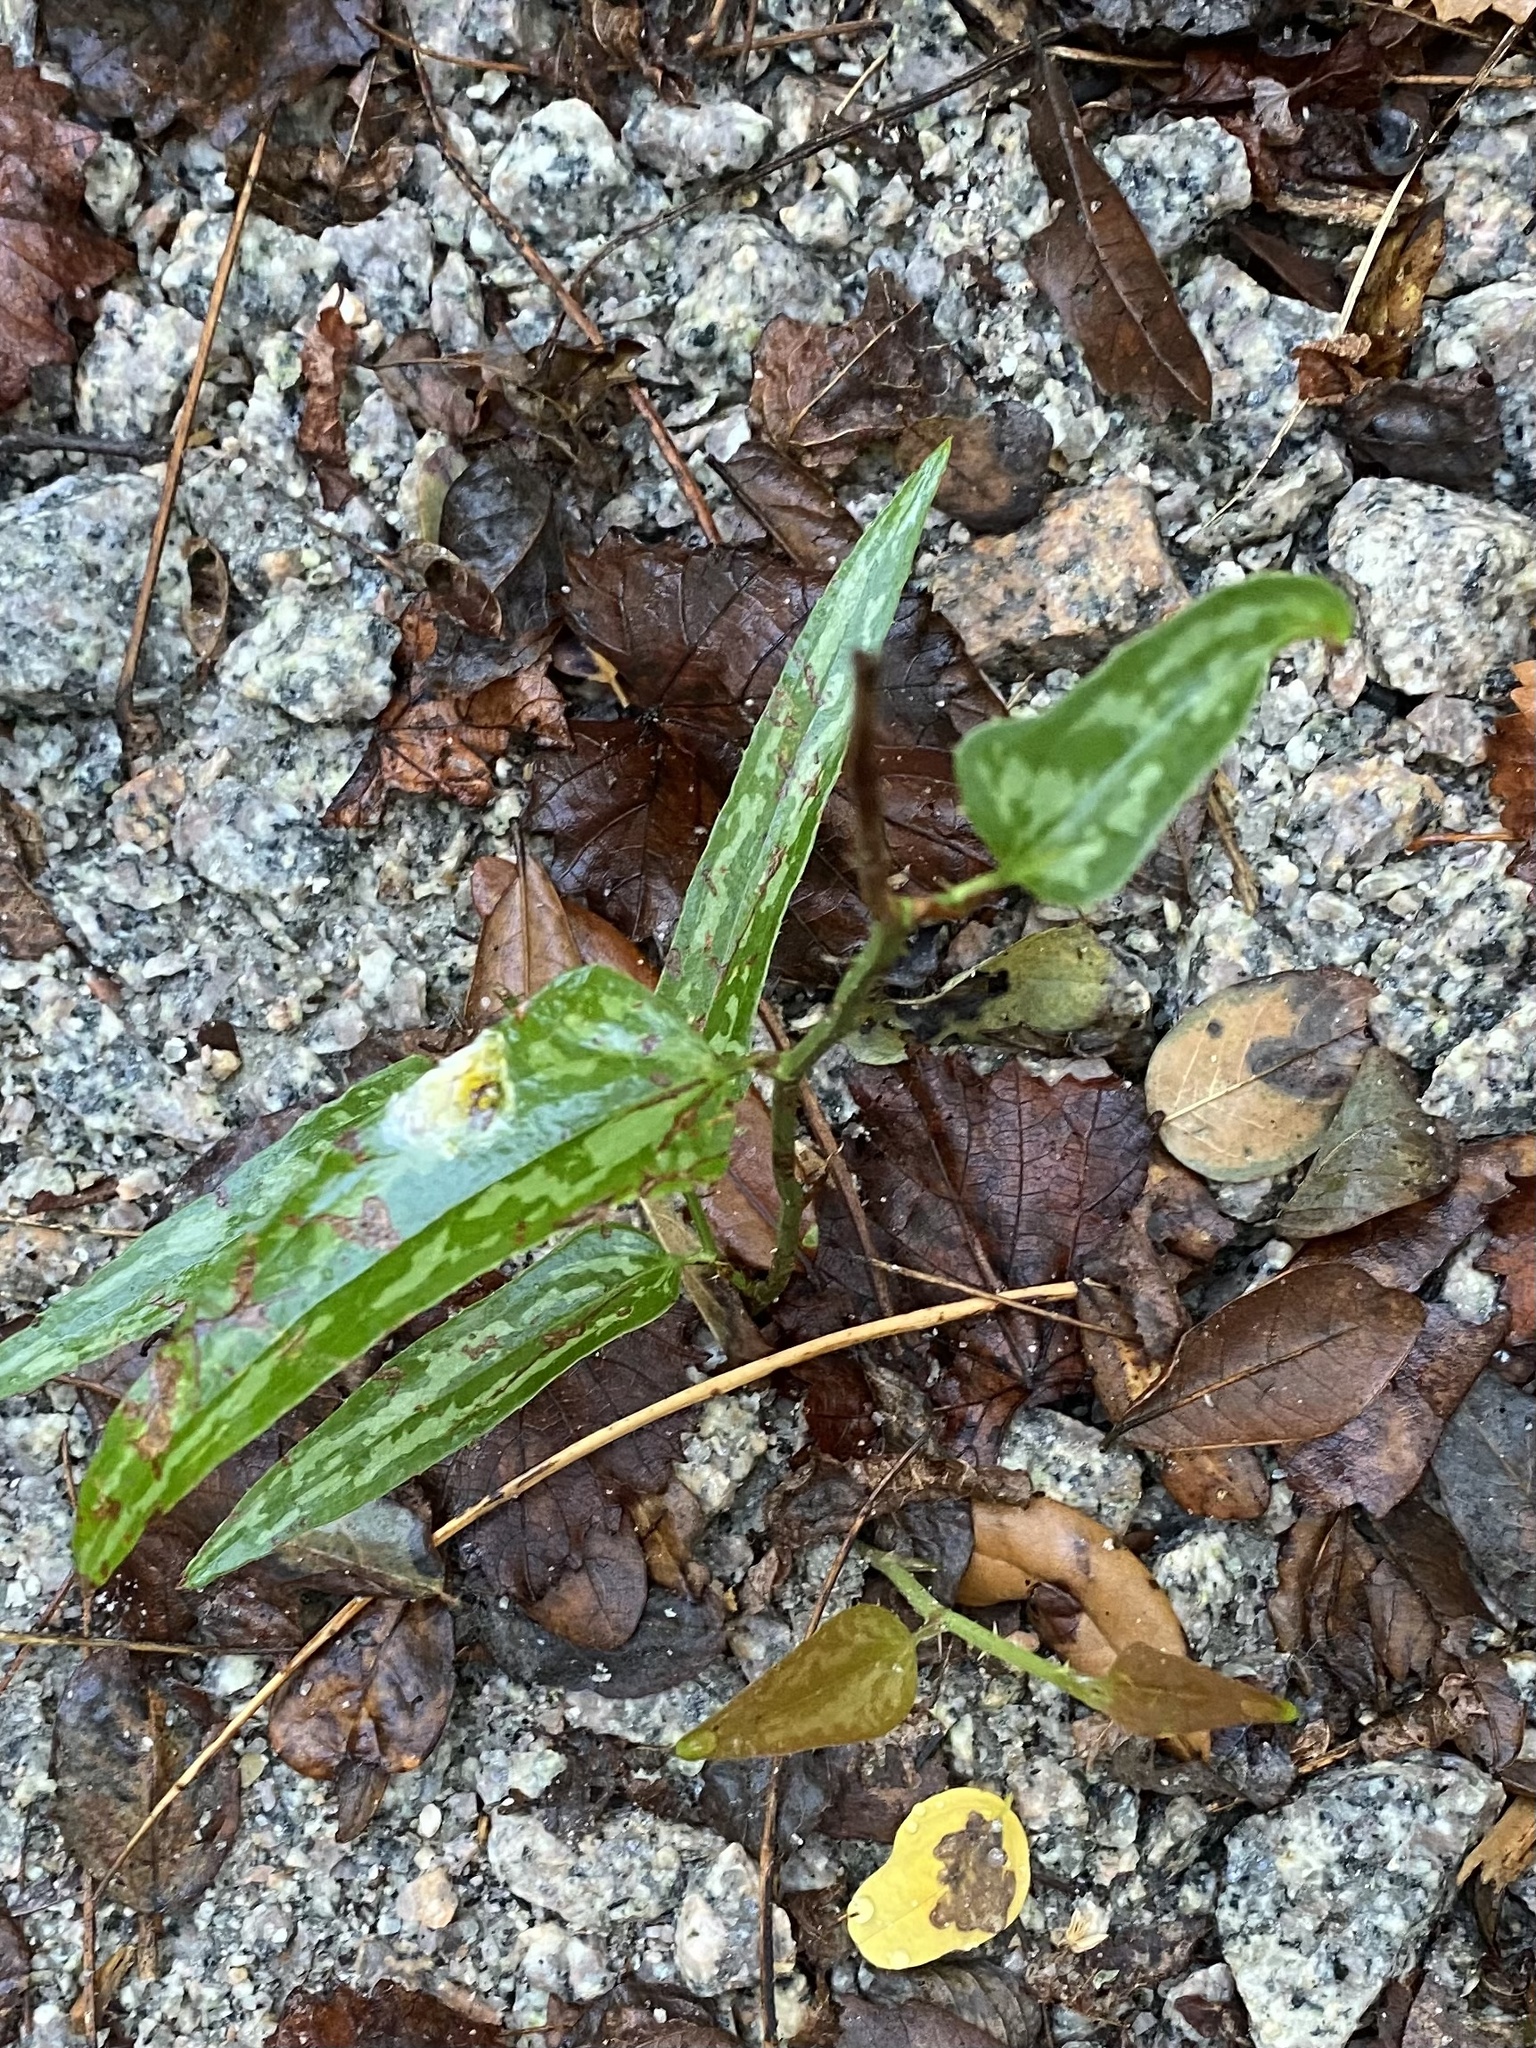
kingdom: Plantae
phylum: Tracheophyta
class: Liliopsida
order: Liliales
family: Smilacaceae
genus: Smilax
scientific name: Smilax bona-nox
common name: Catbrier
